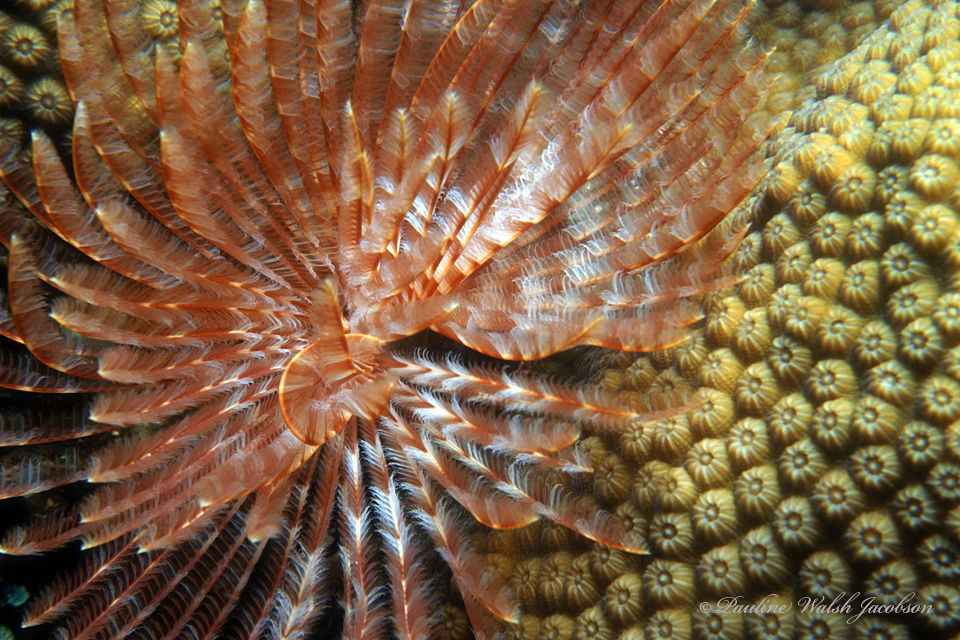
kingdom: Animalia
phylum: Annelida
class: Polychaeta
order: Sabellida
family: Sabellidae
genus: Sabellastarte
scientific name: Sabellastarte magnifica
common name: Giant feather-duster worm
